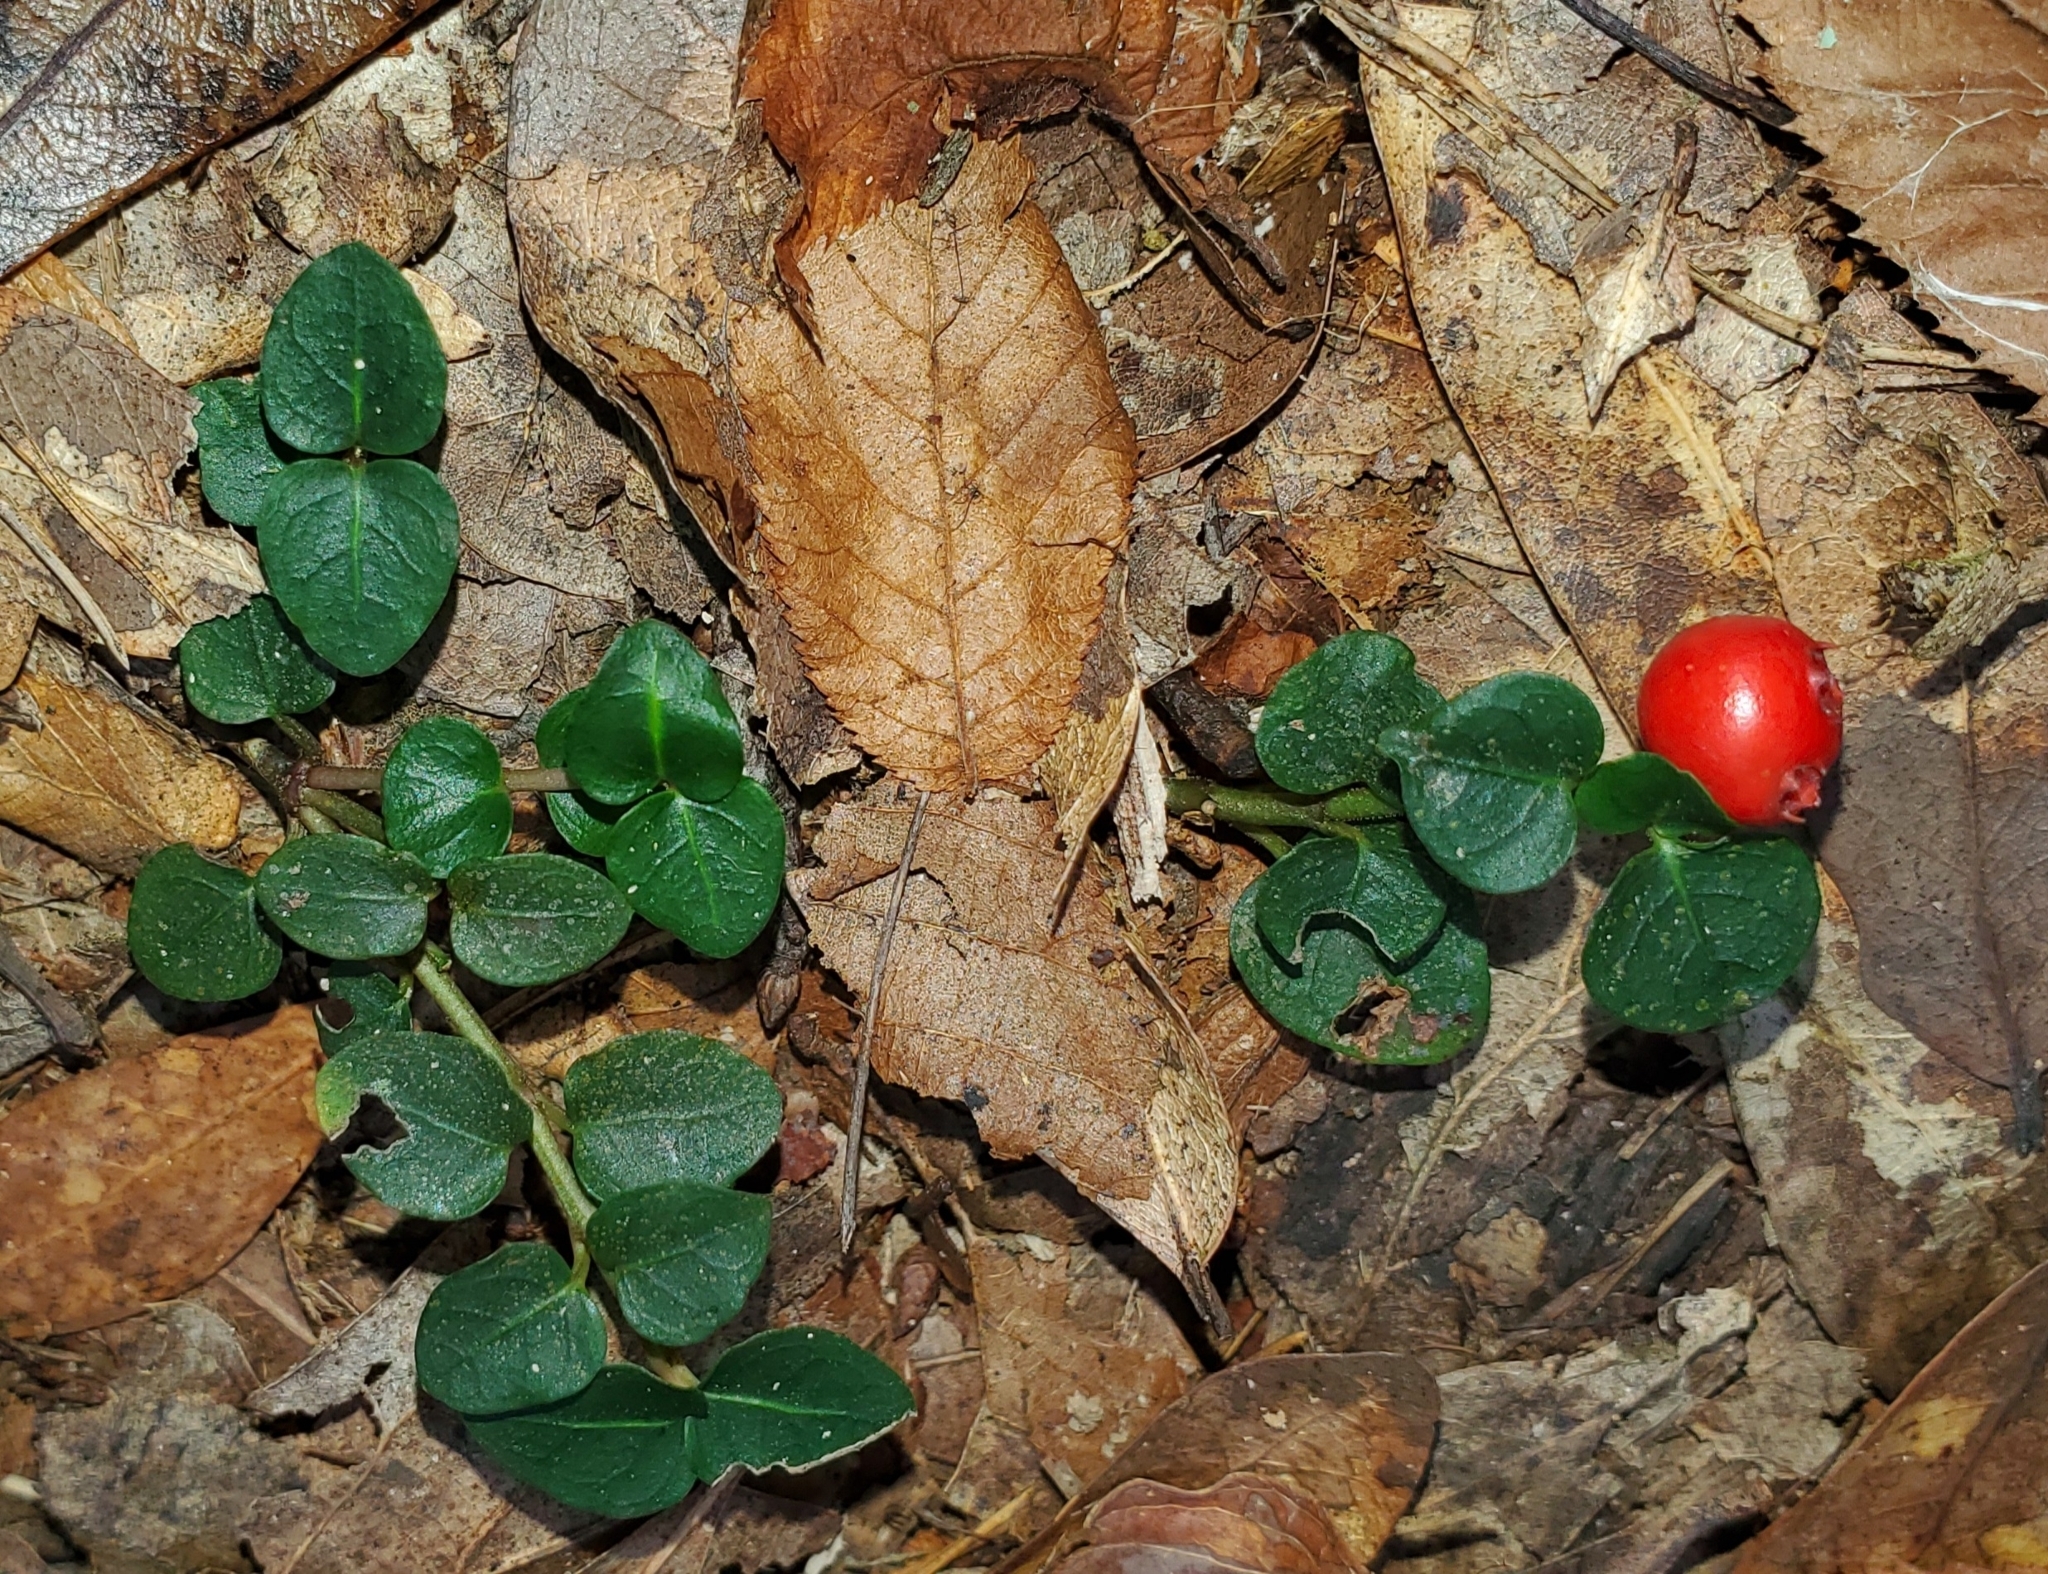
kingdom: Plantae
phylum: Tracheophyta
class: Magnoliopsida
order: Gentianales
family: Rubiaceae
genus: Mitchella
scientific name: Mitchella repens
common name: Partridge-berry
